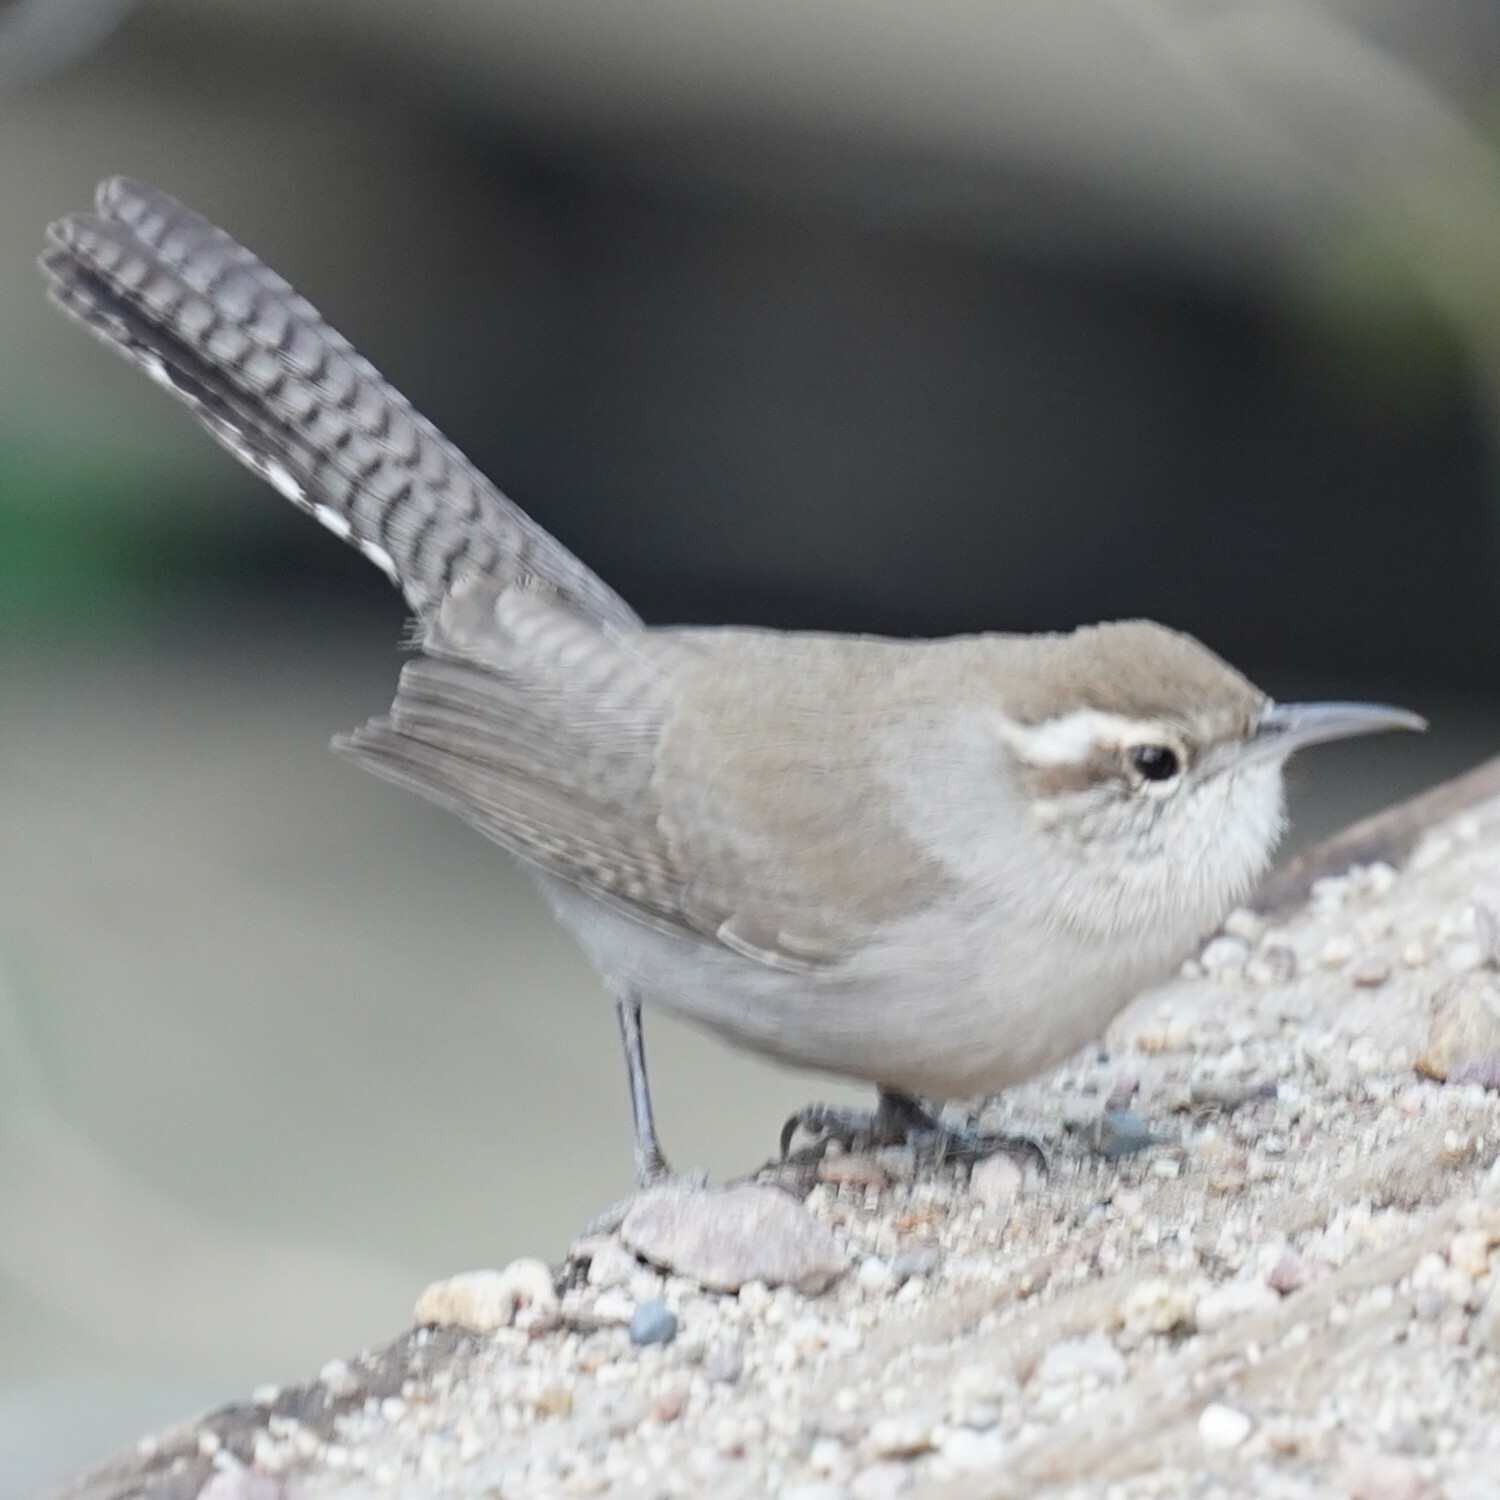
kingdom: Animalia
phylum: Chordata
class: Aves
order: Passeriformes
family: Troglodytidae
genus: Thryomanes
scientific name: Thryomanes bewickii
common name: Bewick's wren
